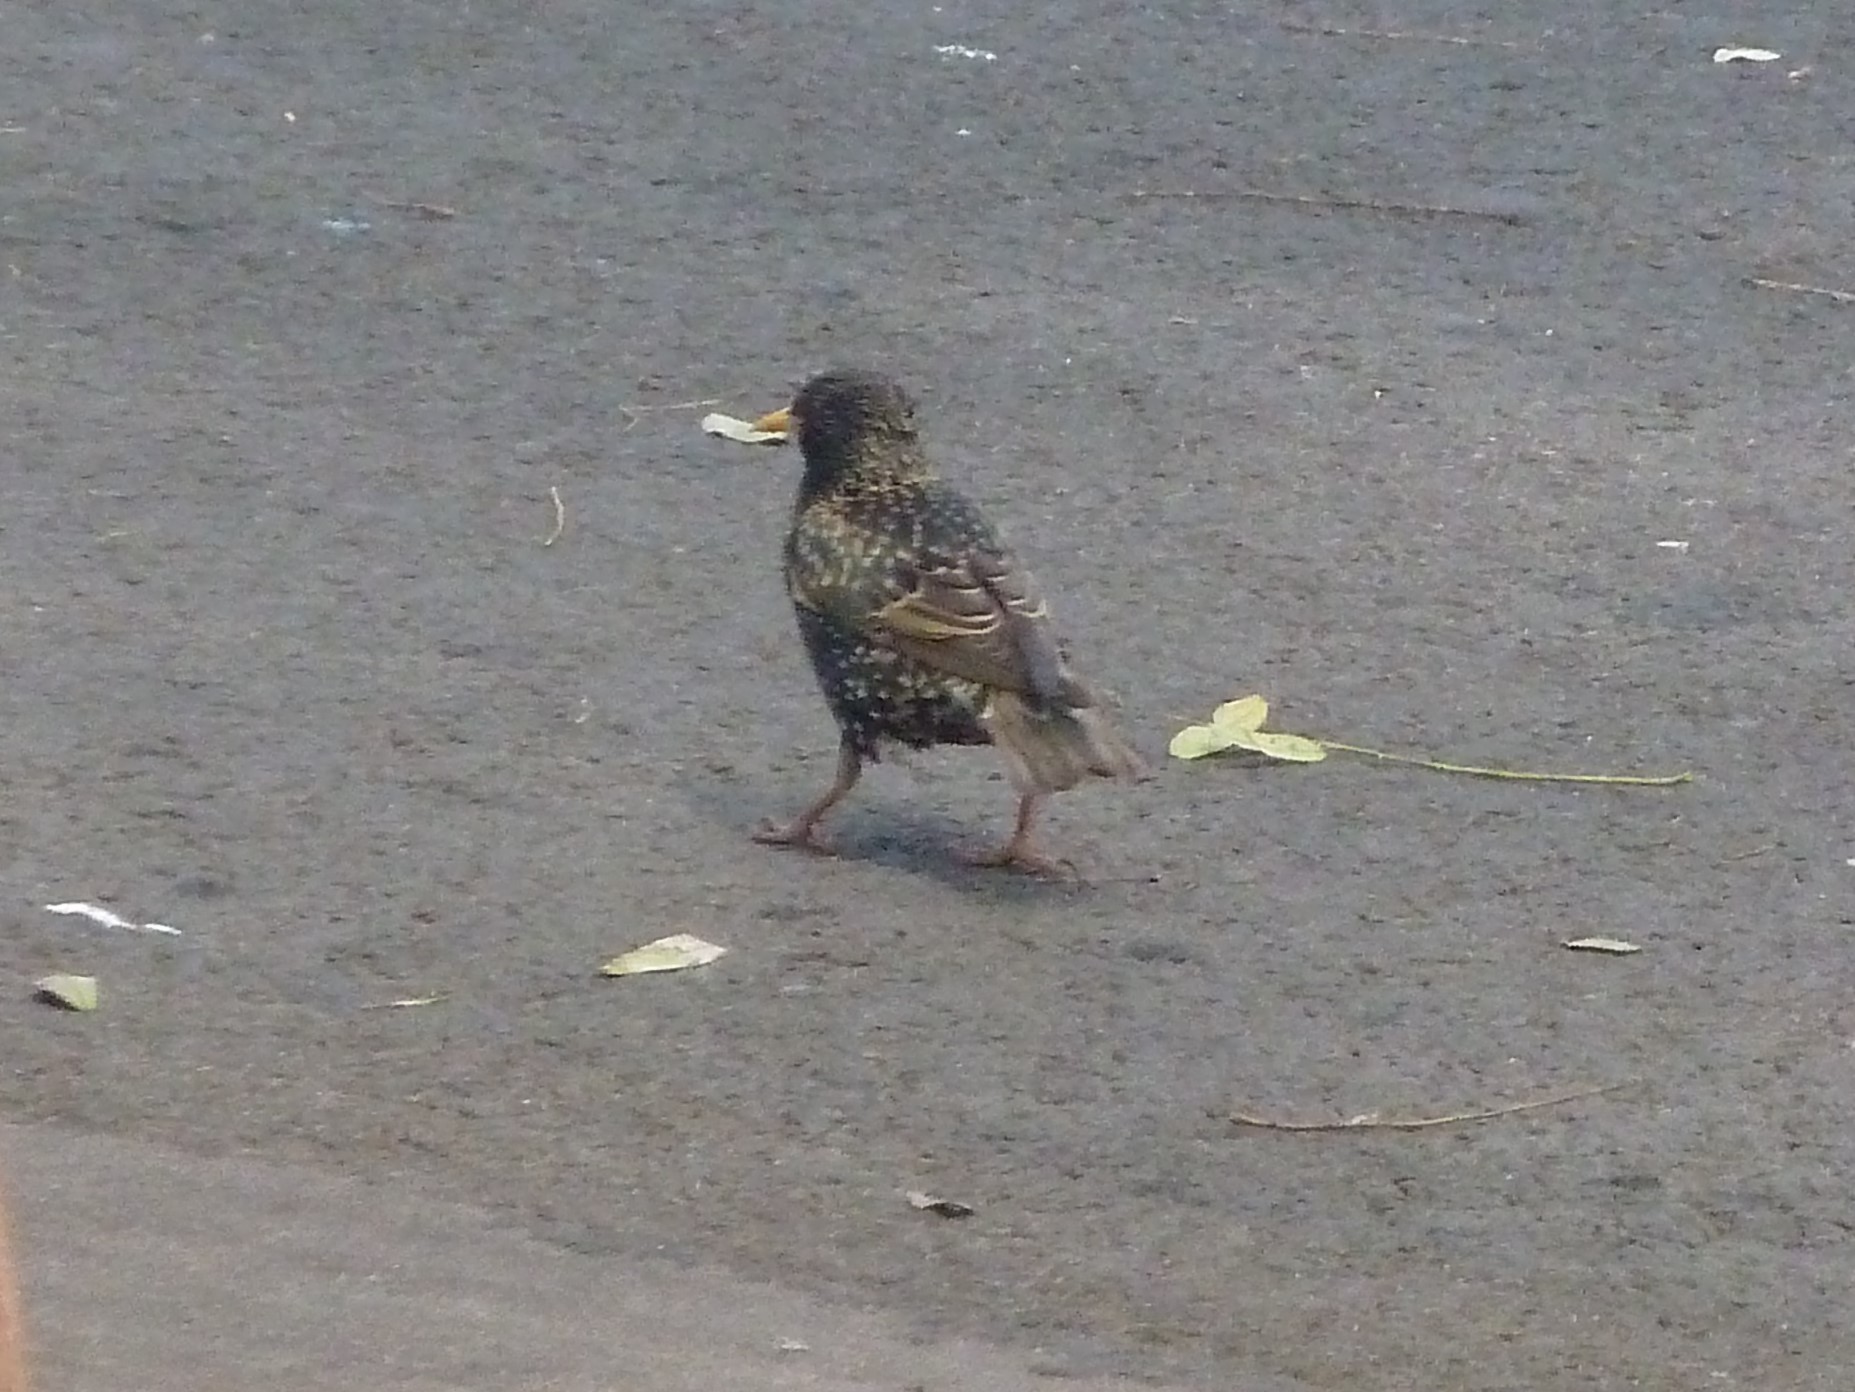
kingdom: Animalia
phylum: Chordata
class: Aves
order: Passeriformes
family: Sturnidae
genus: Sturnus
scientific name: Sturnus vulgaris
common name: Common starling
